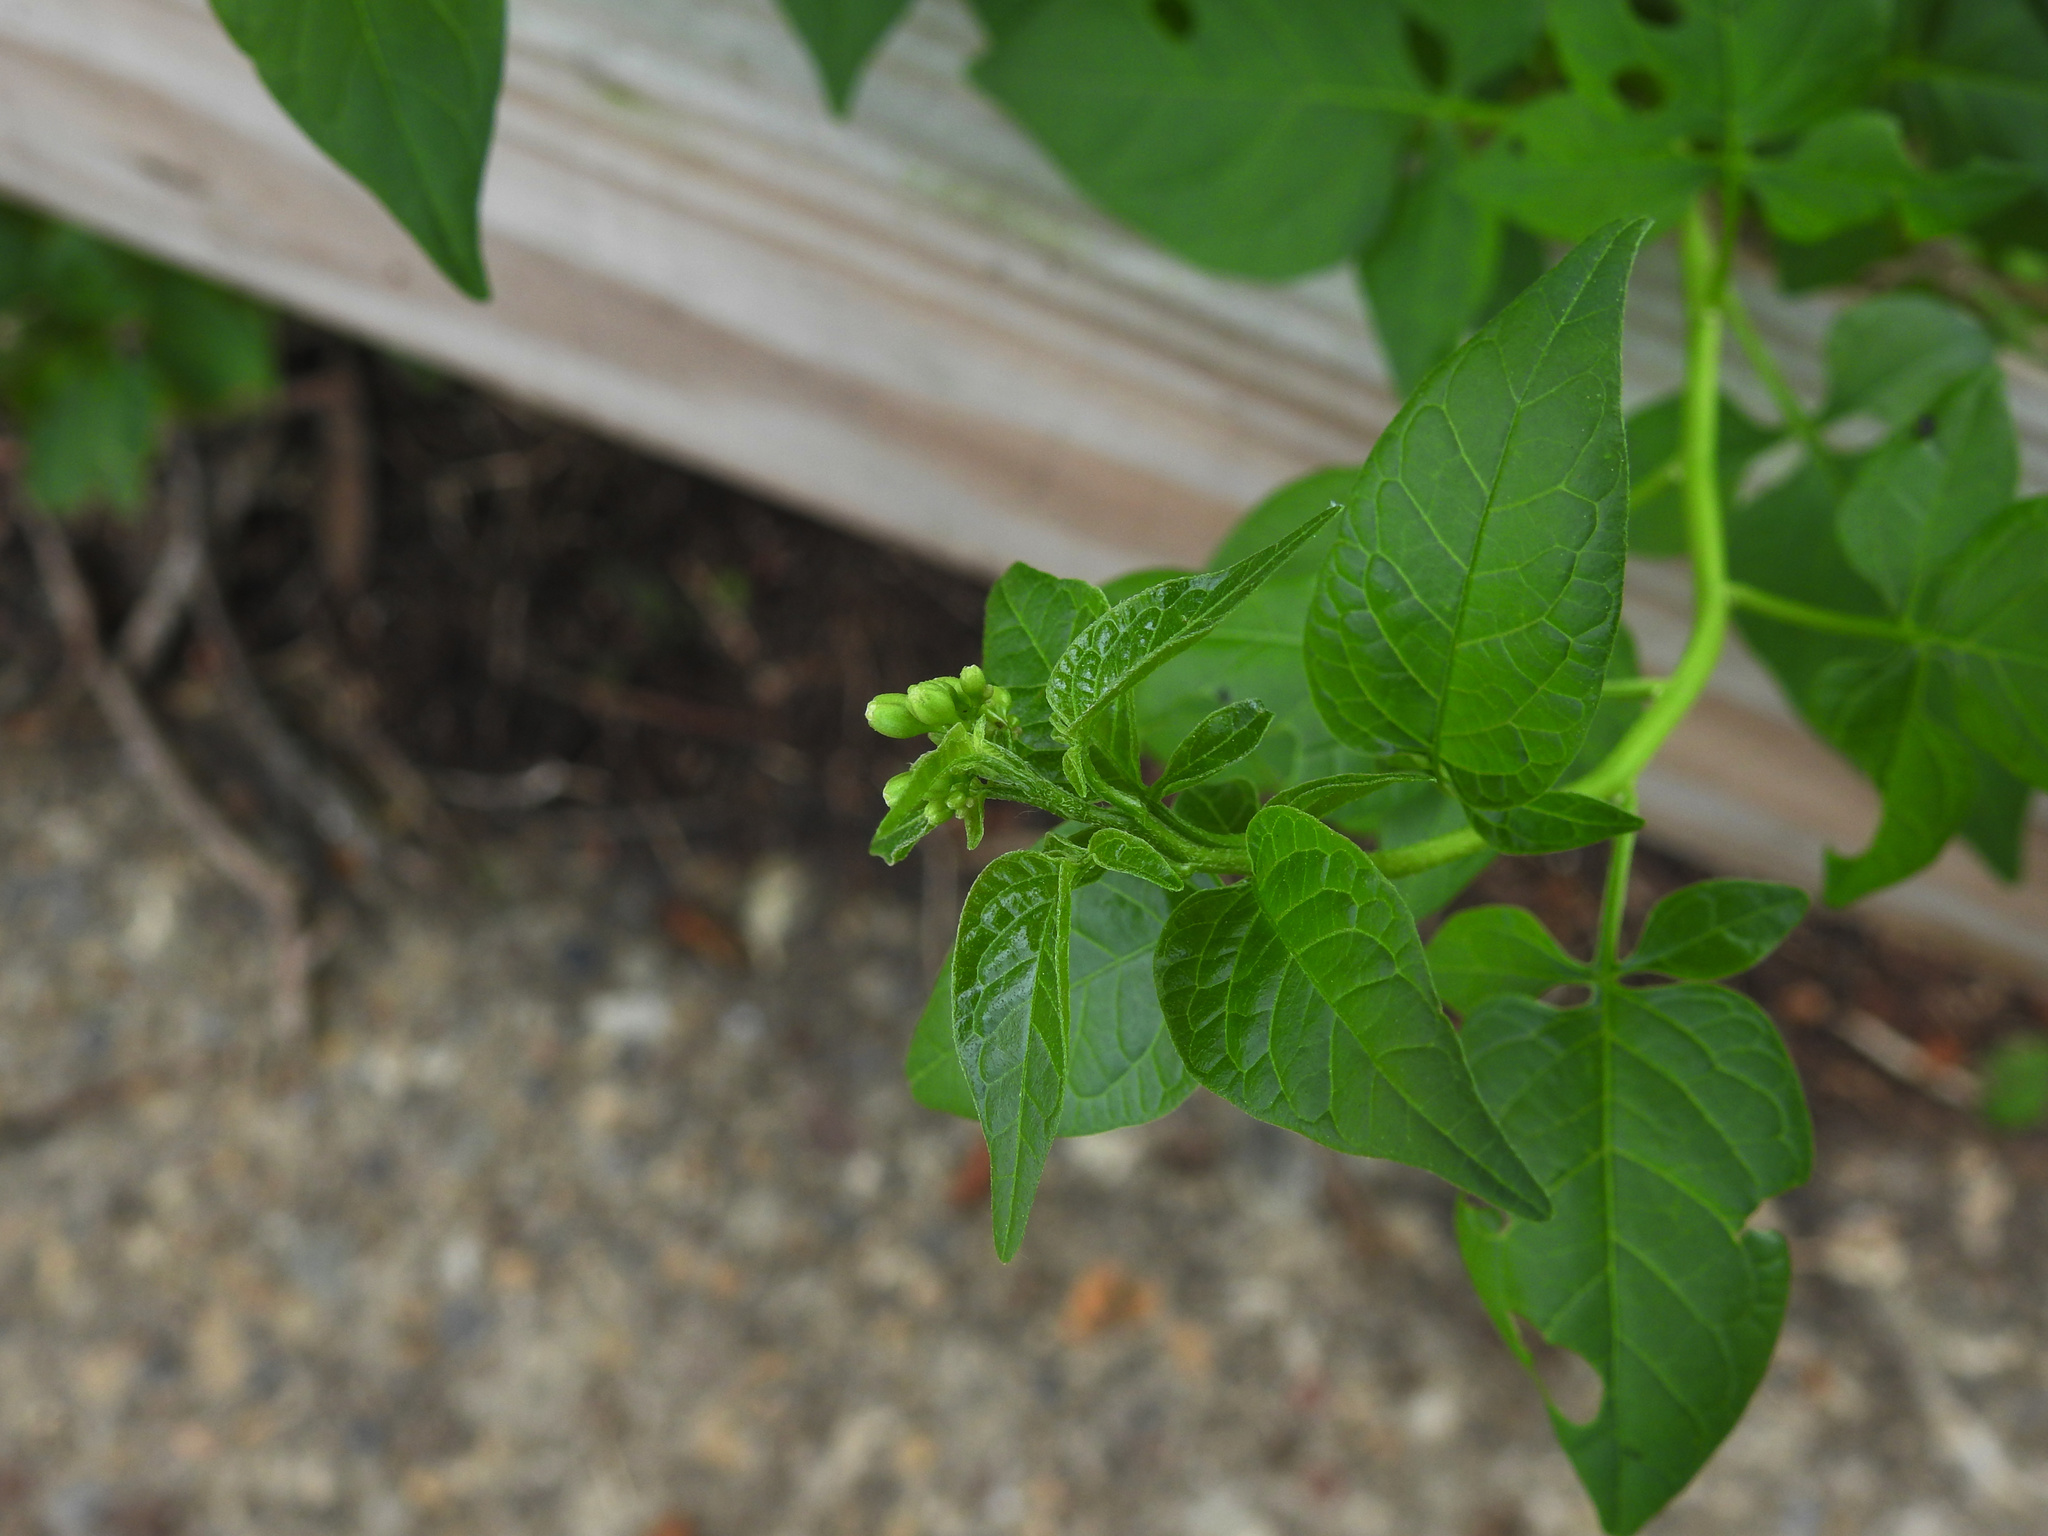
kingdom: Plantae
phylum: Tracheophyta
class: Magnoliopsida
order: Solanales
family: Solanaceae
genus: Solanum
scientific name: Solanum dulcamara
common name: Climbing nightshade
